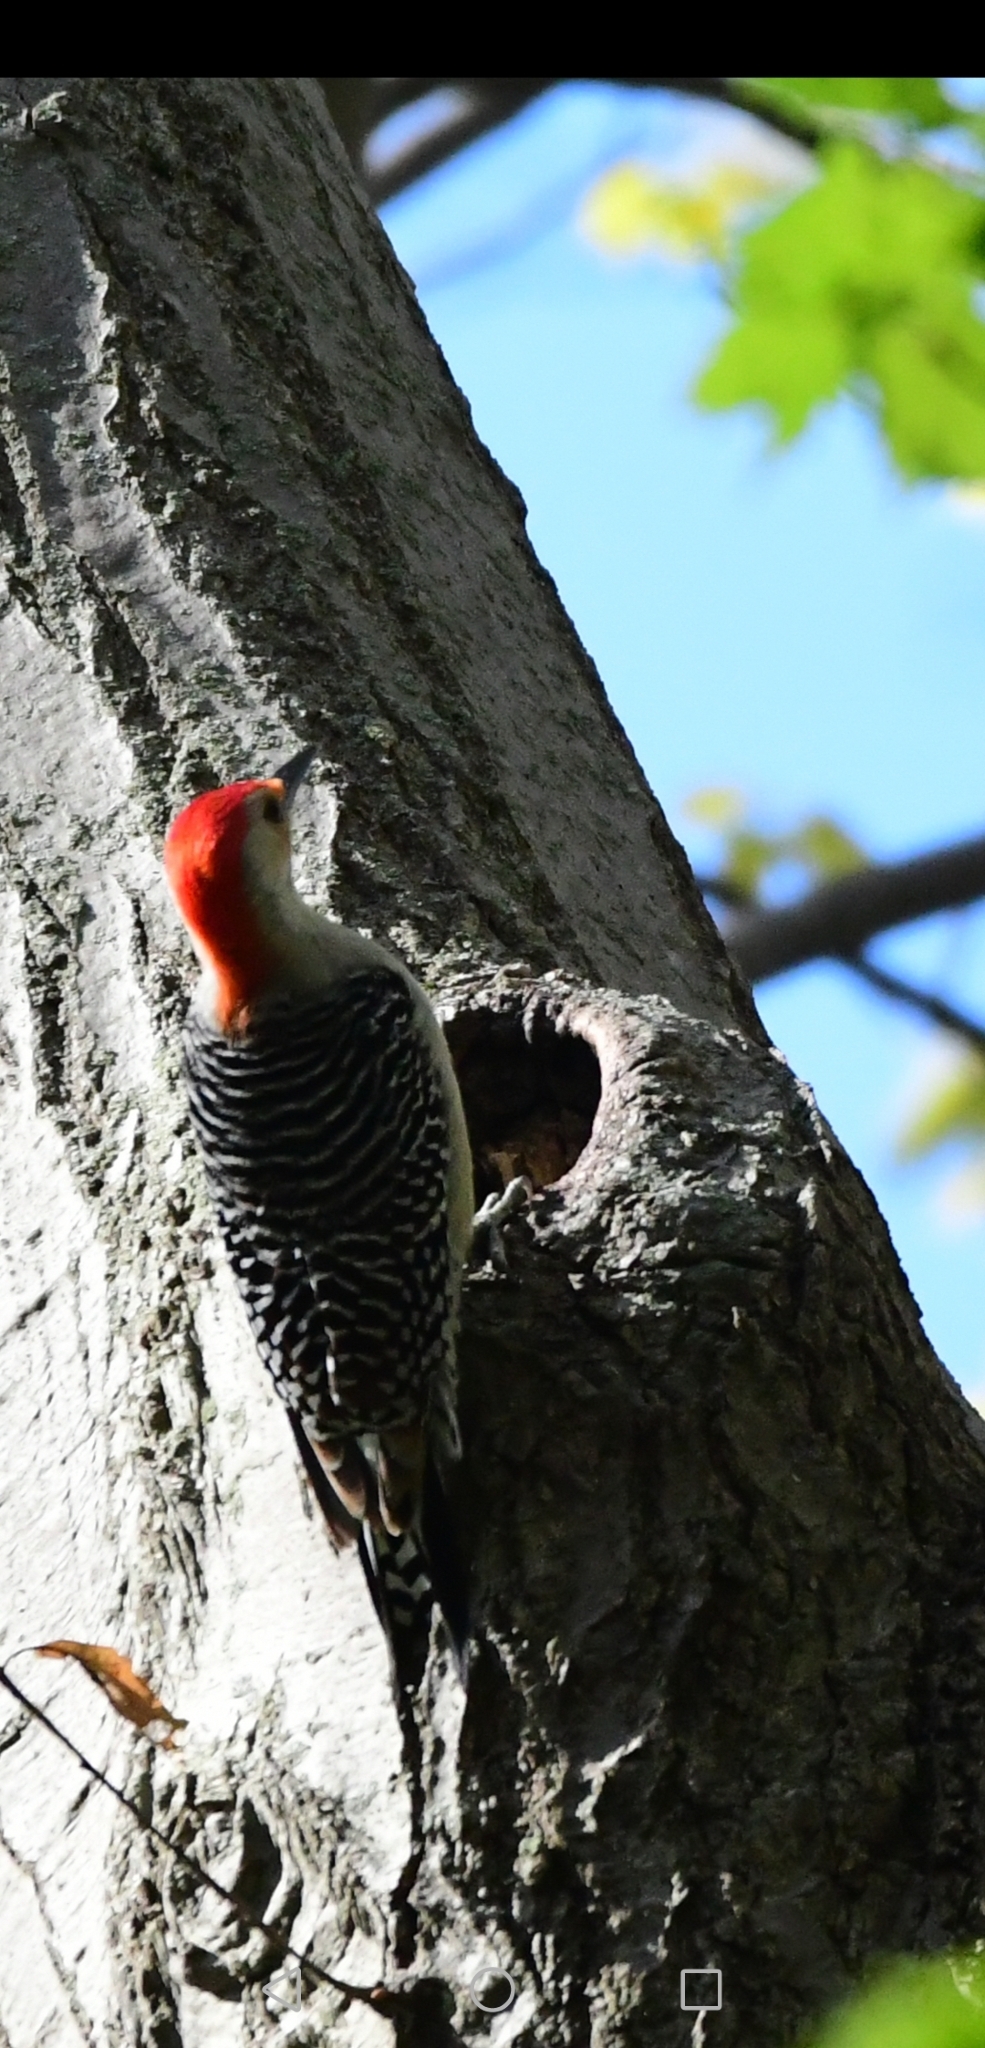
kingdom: Animalia
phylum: Chordata
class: Aves
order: Piciformes
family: Picidae
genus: Melanerpes
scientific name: Melanerpes carolinus
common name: Red-bellied woodpecker
